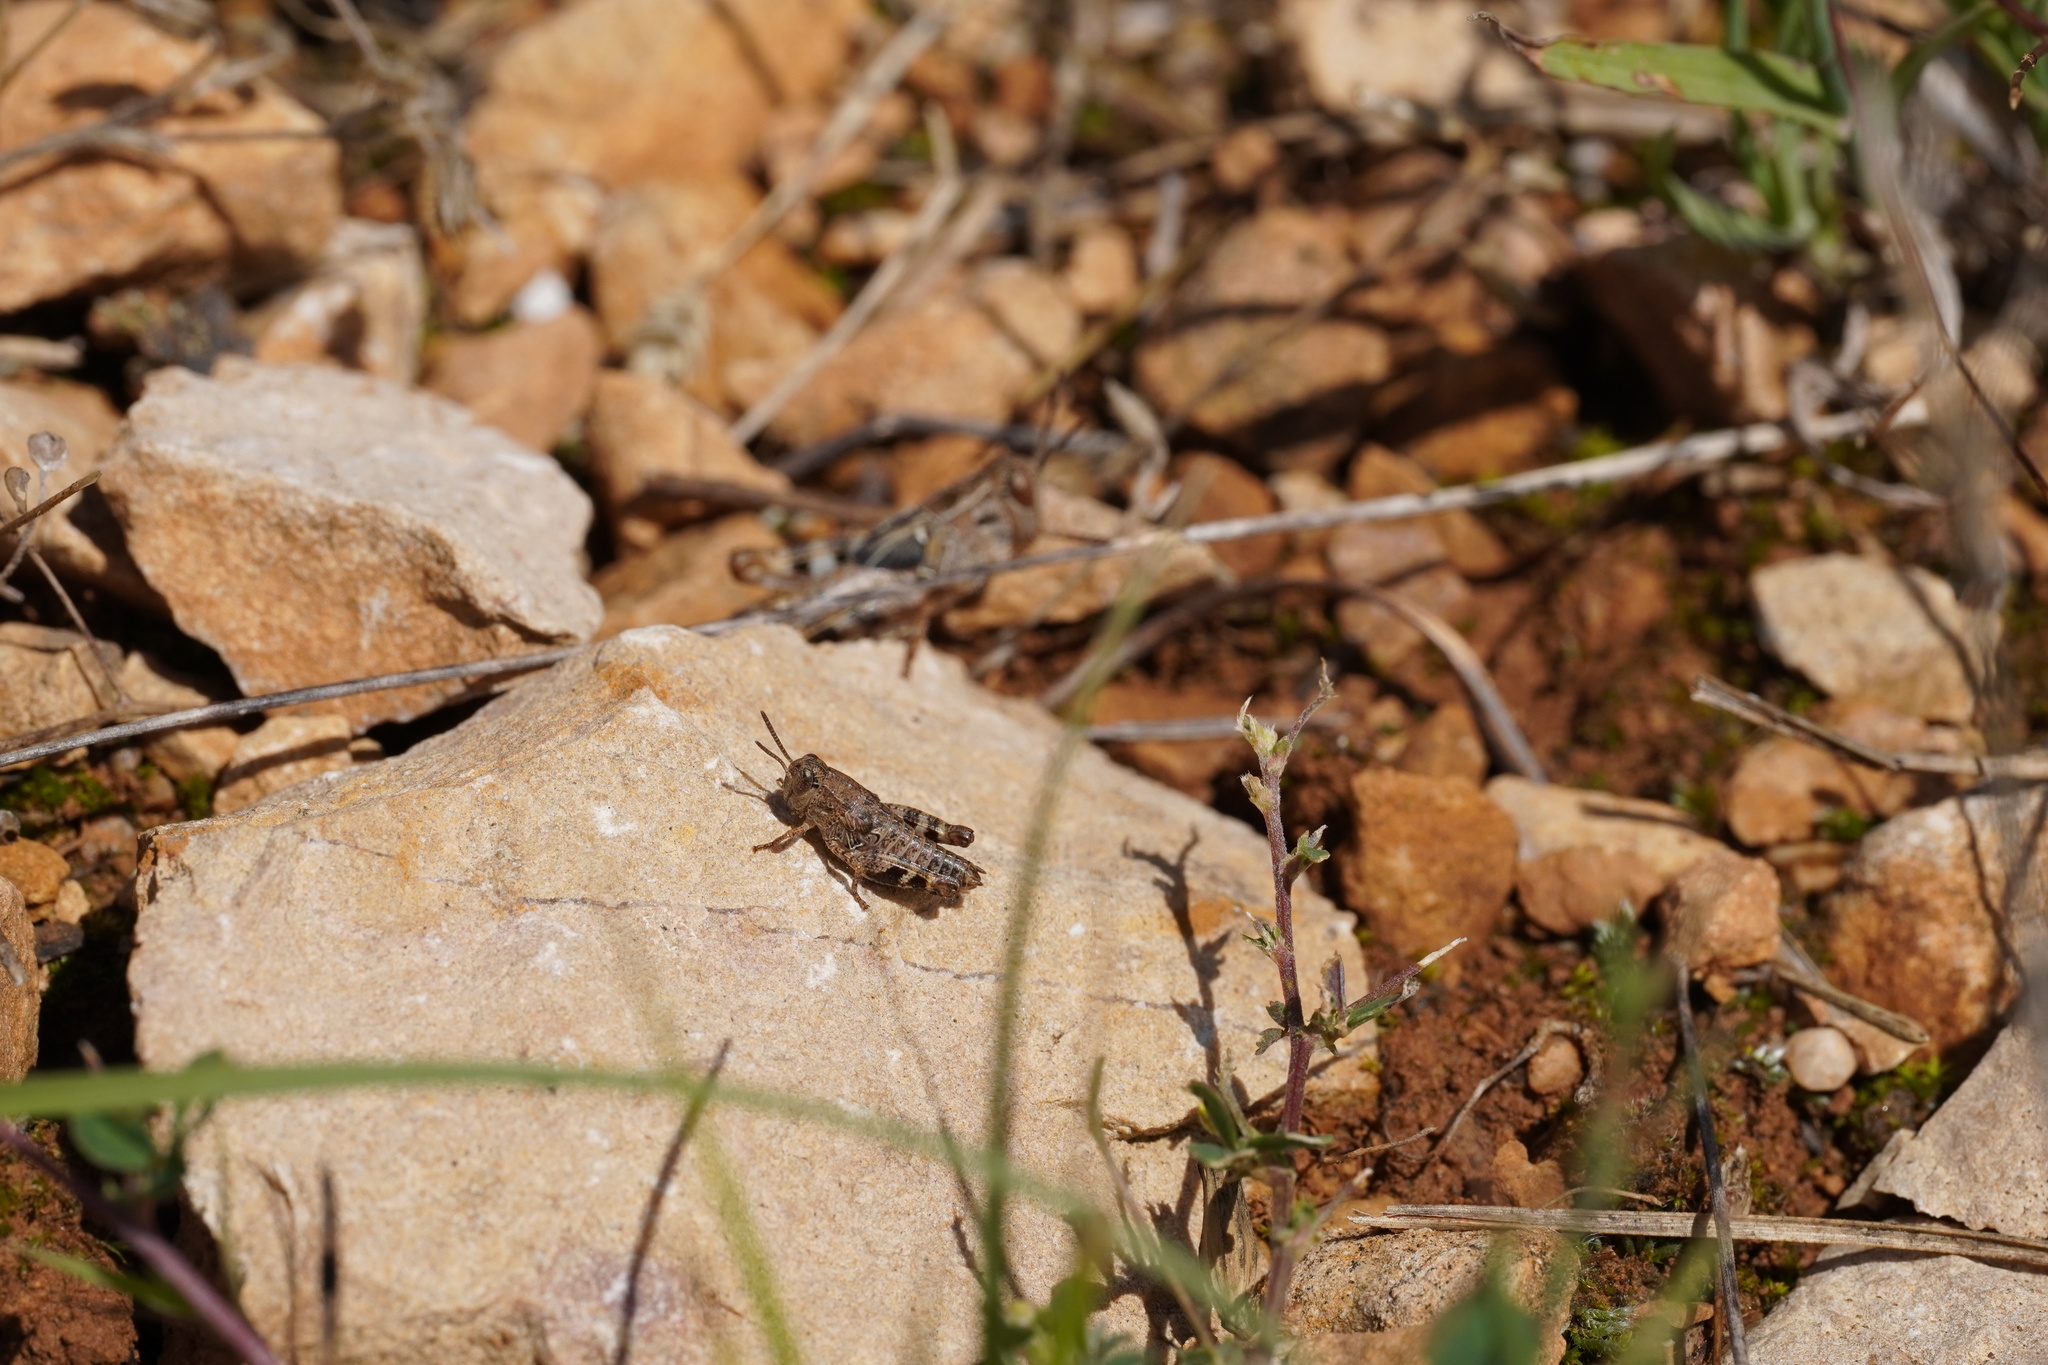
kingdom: Animalia
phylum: Arthropoda
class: Insecta
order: Orthoptera
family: Acrididae
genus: Pezotettix
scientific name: Pezotettix giornae
